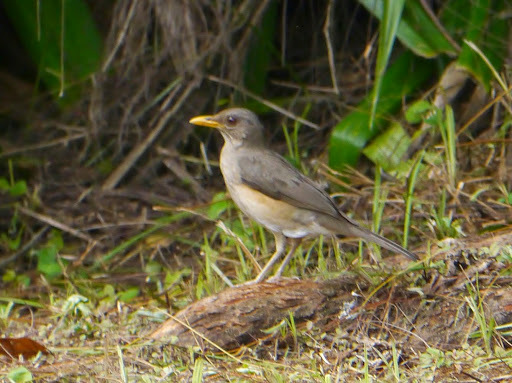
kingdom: Animalia
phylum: Chordata
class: Aves
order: Passeriformes
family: Turdidae
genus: Turdus
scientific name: Turdus pelios
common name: African thrush
